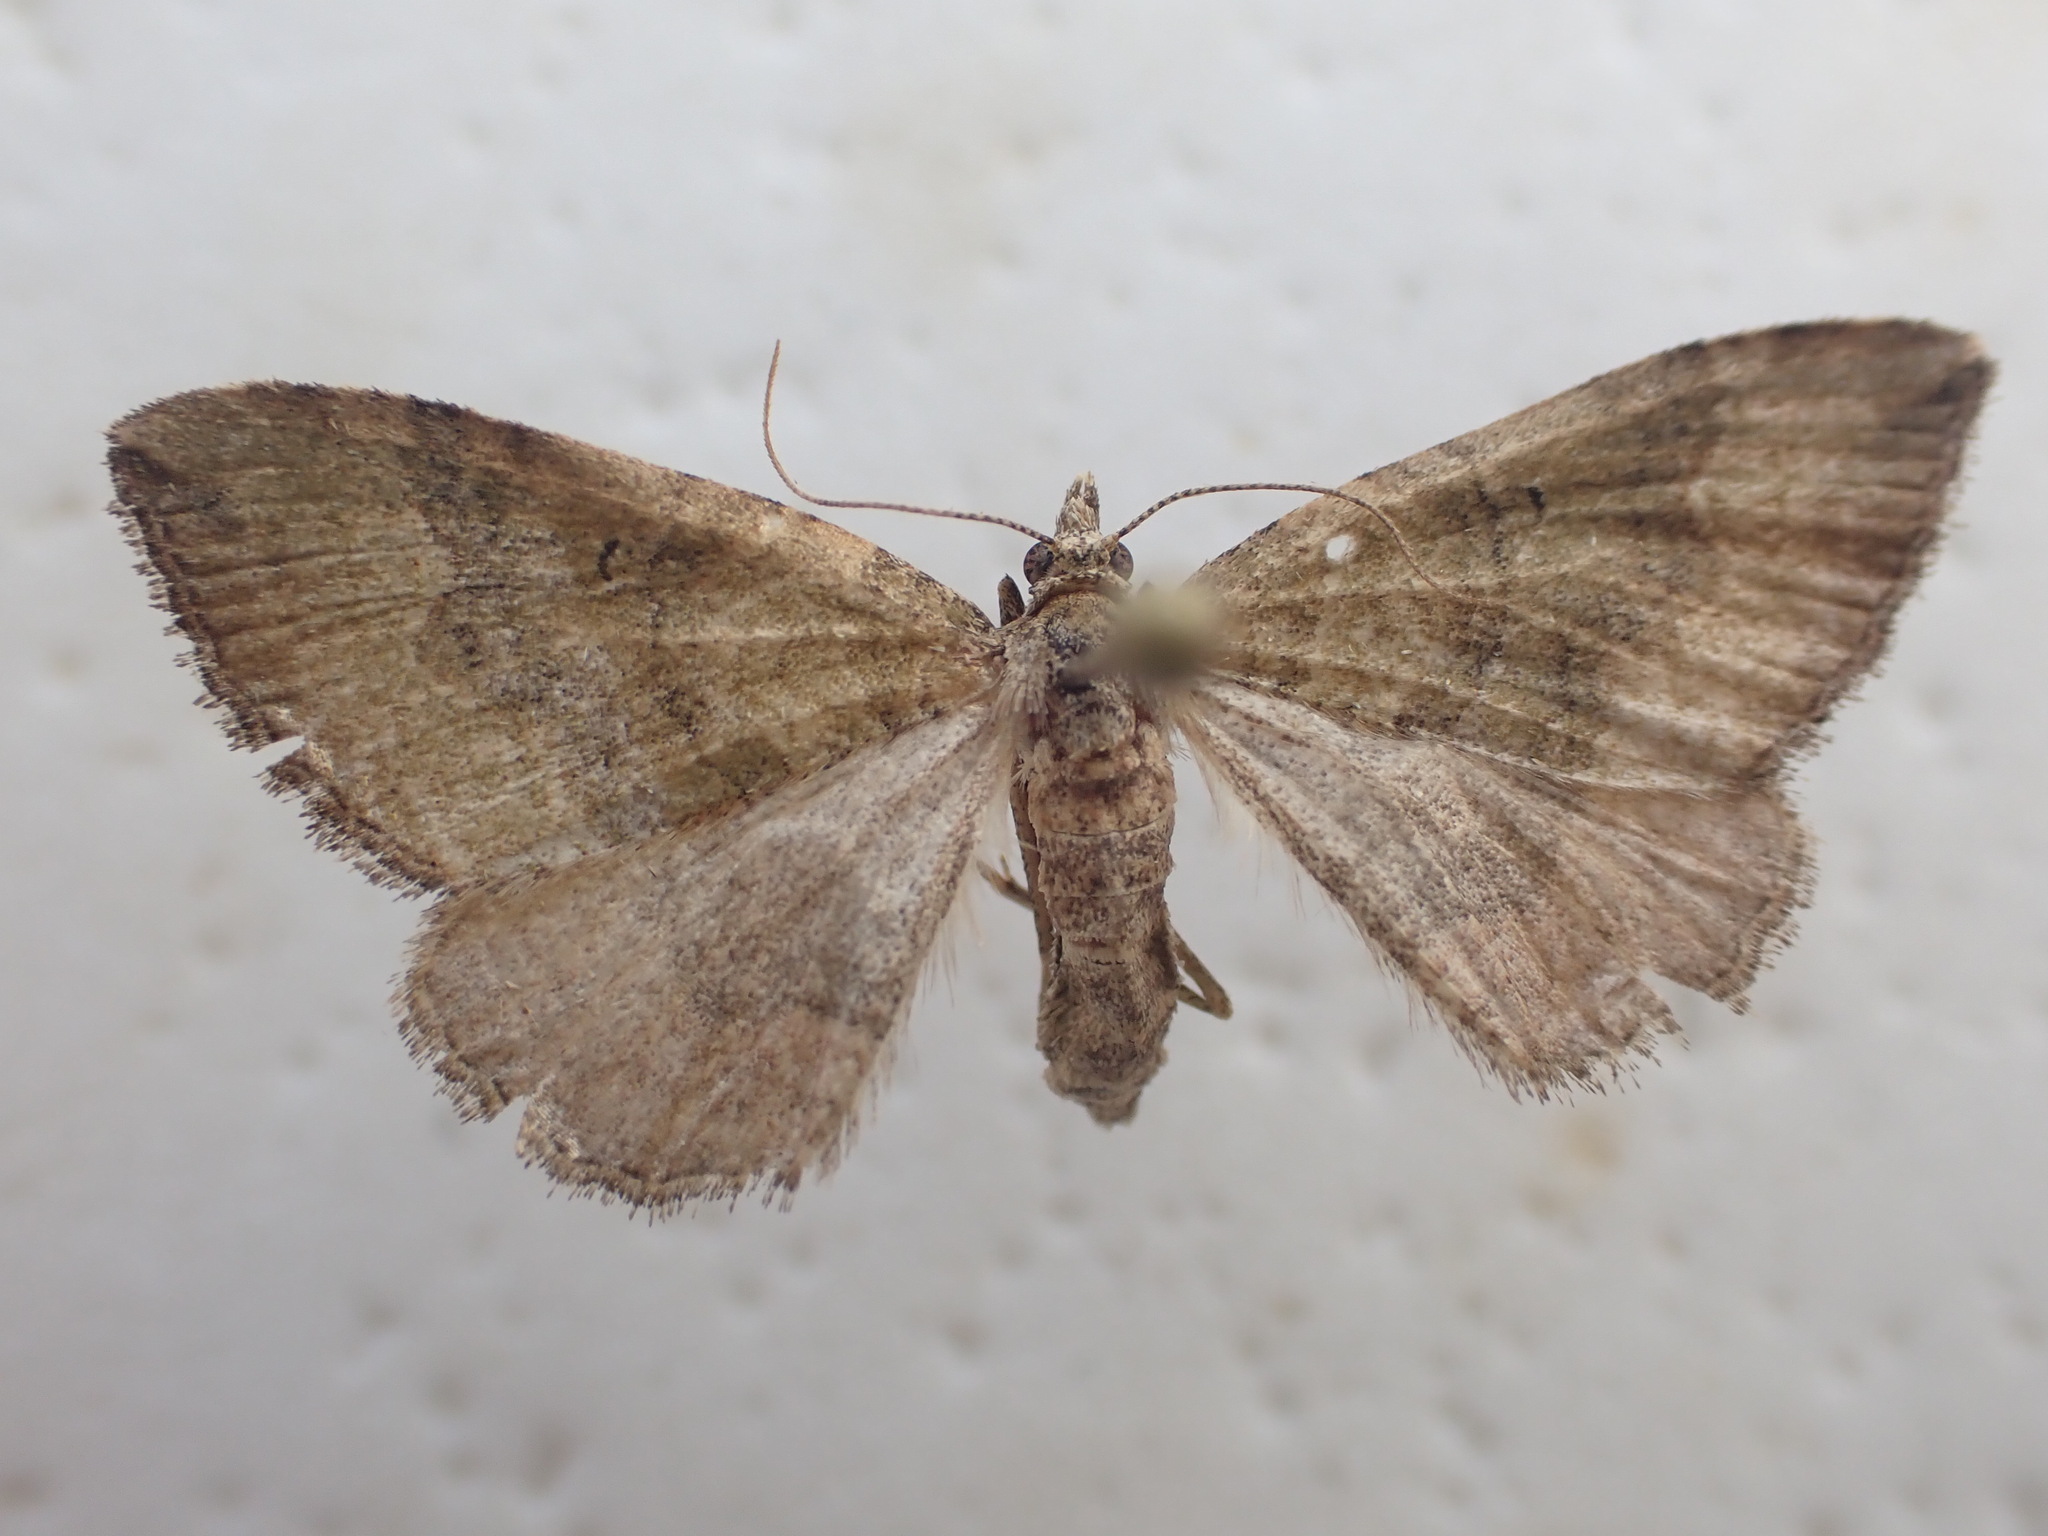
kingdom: Animalia
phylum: Arthropoda
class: Insecta
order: Lepidoptera
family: Geometridae
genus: Epyaxa
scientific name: Epyaxa rosearia
